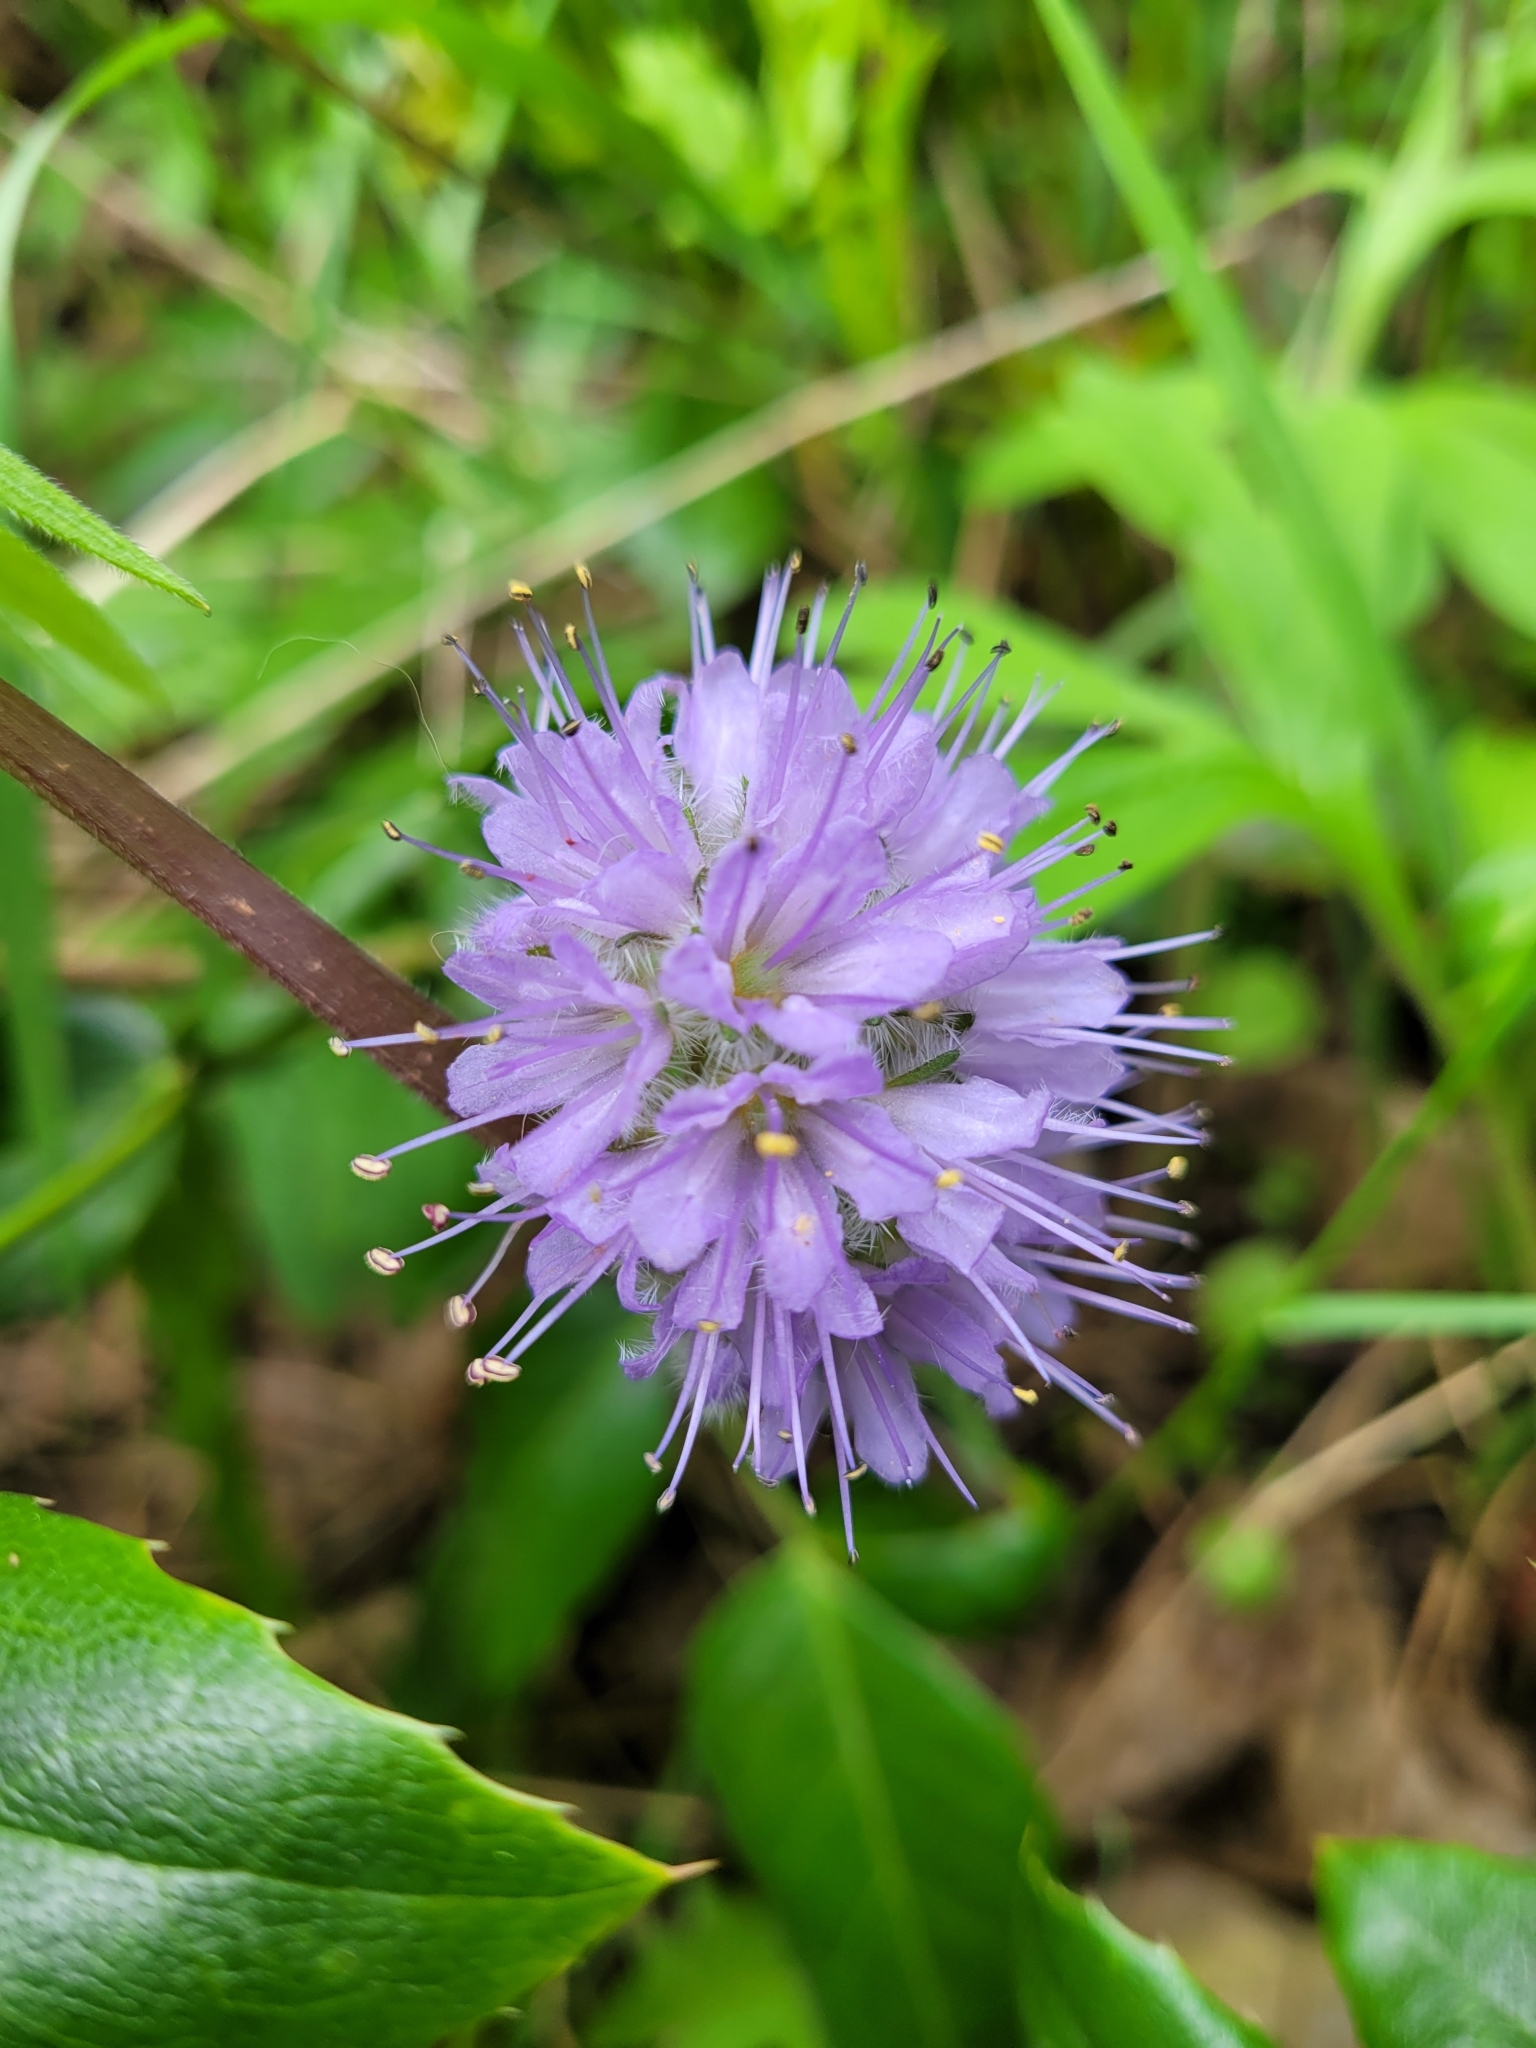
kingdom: Plantae
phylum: Tracheophyta
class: Magnoliopsida
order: Boraginales
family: Hydrophyllaceae
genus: Hydrophyllum
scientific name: Hydrophyllum capitatum
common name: Woollen-breeches
